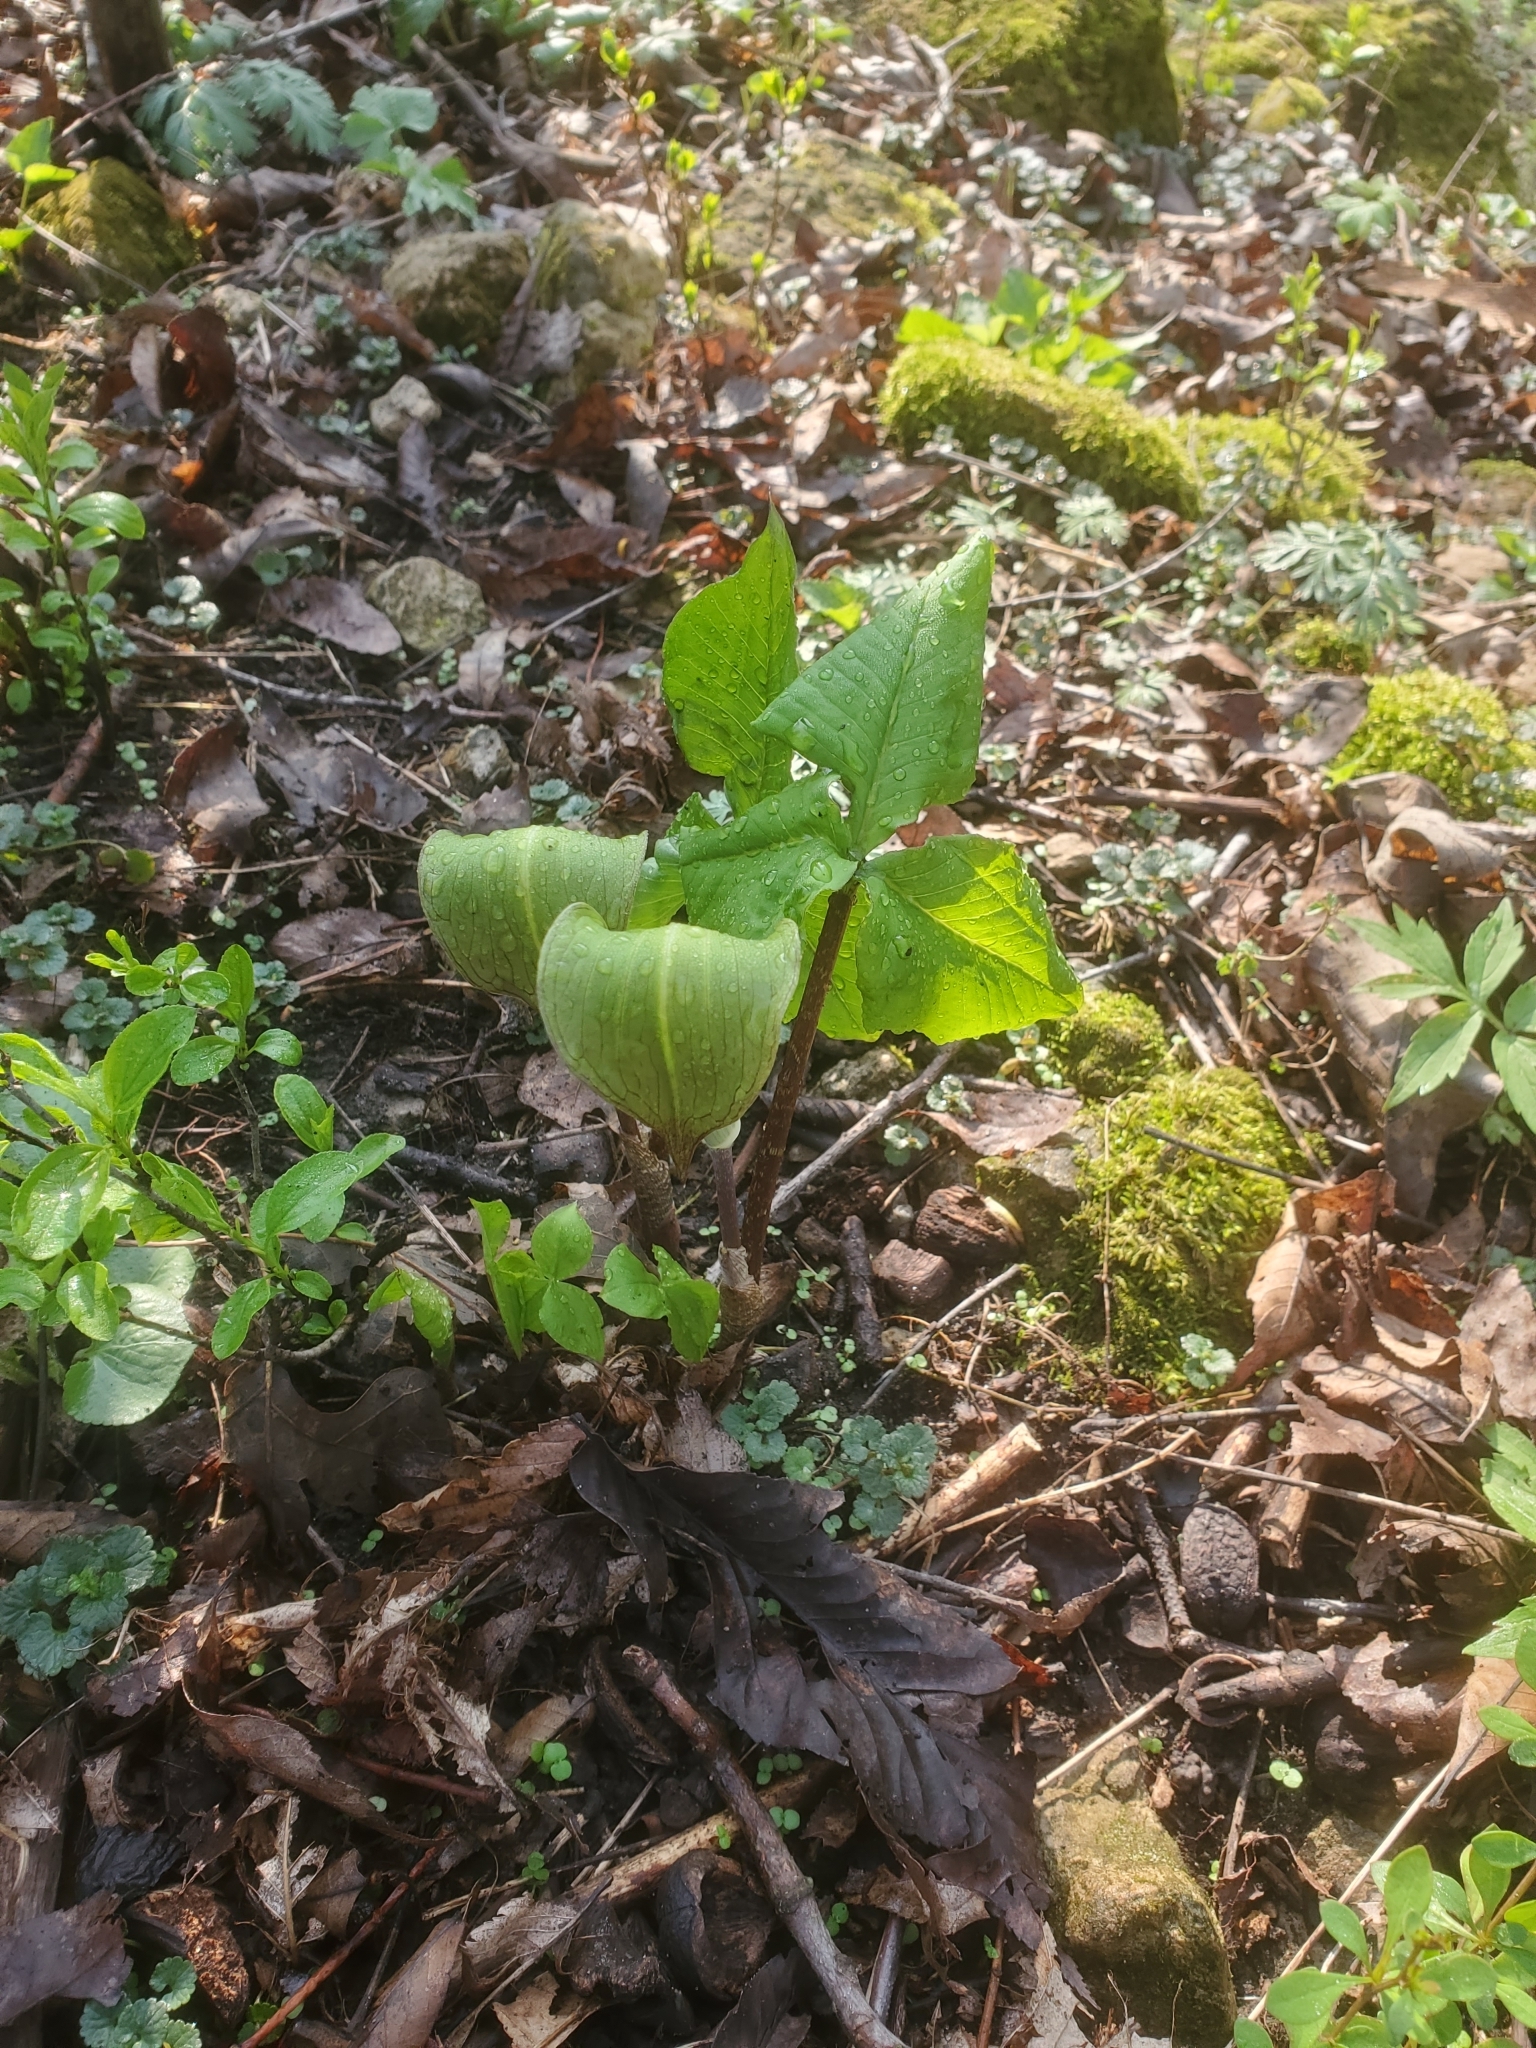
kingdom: Plantae
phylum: Tracheophyta
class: Liliopsida
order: Alismatales
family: Araceae
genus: Arisaema
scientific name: Arisaema triphyllum
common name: Jack-in-the-pulpit
